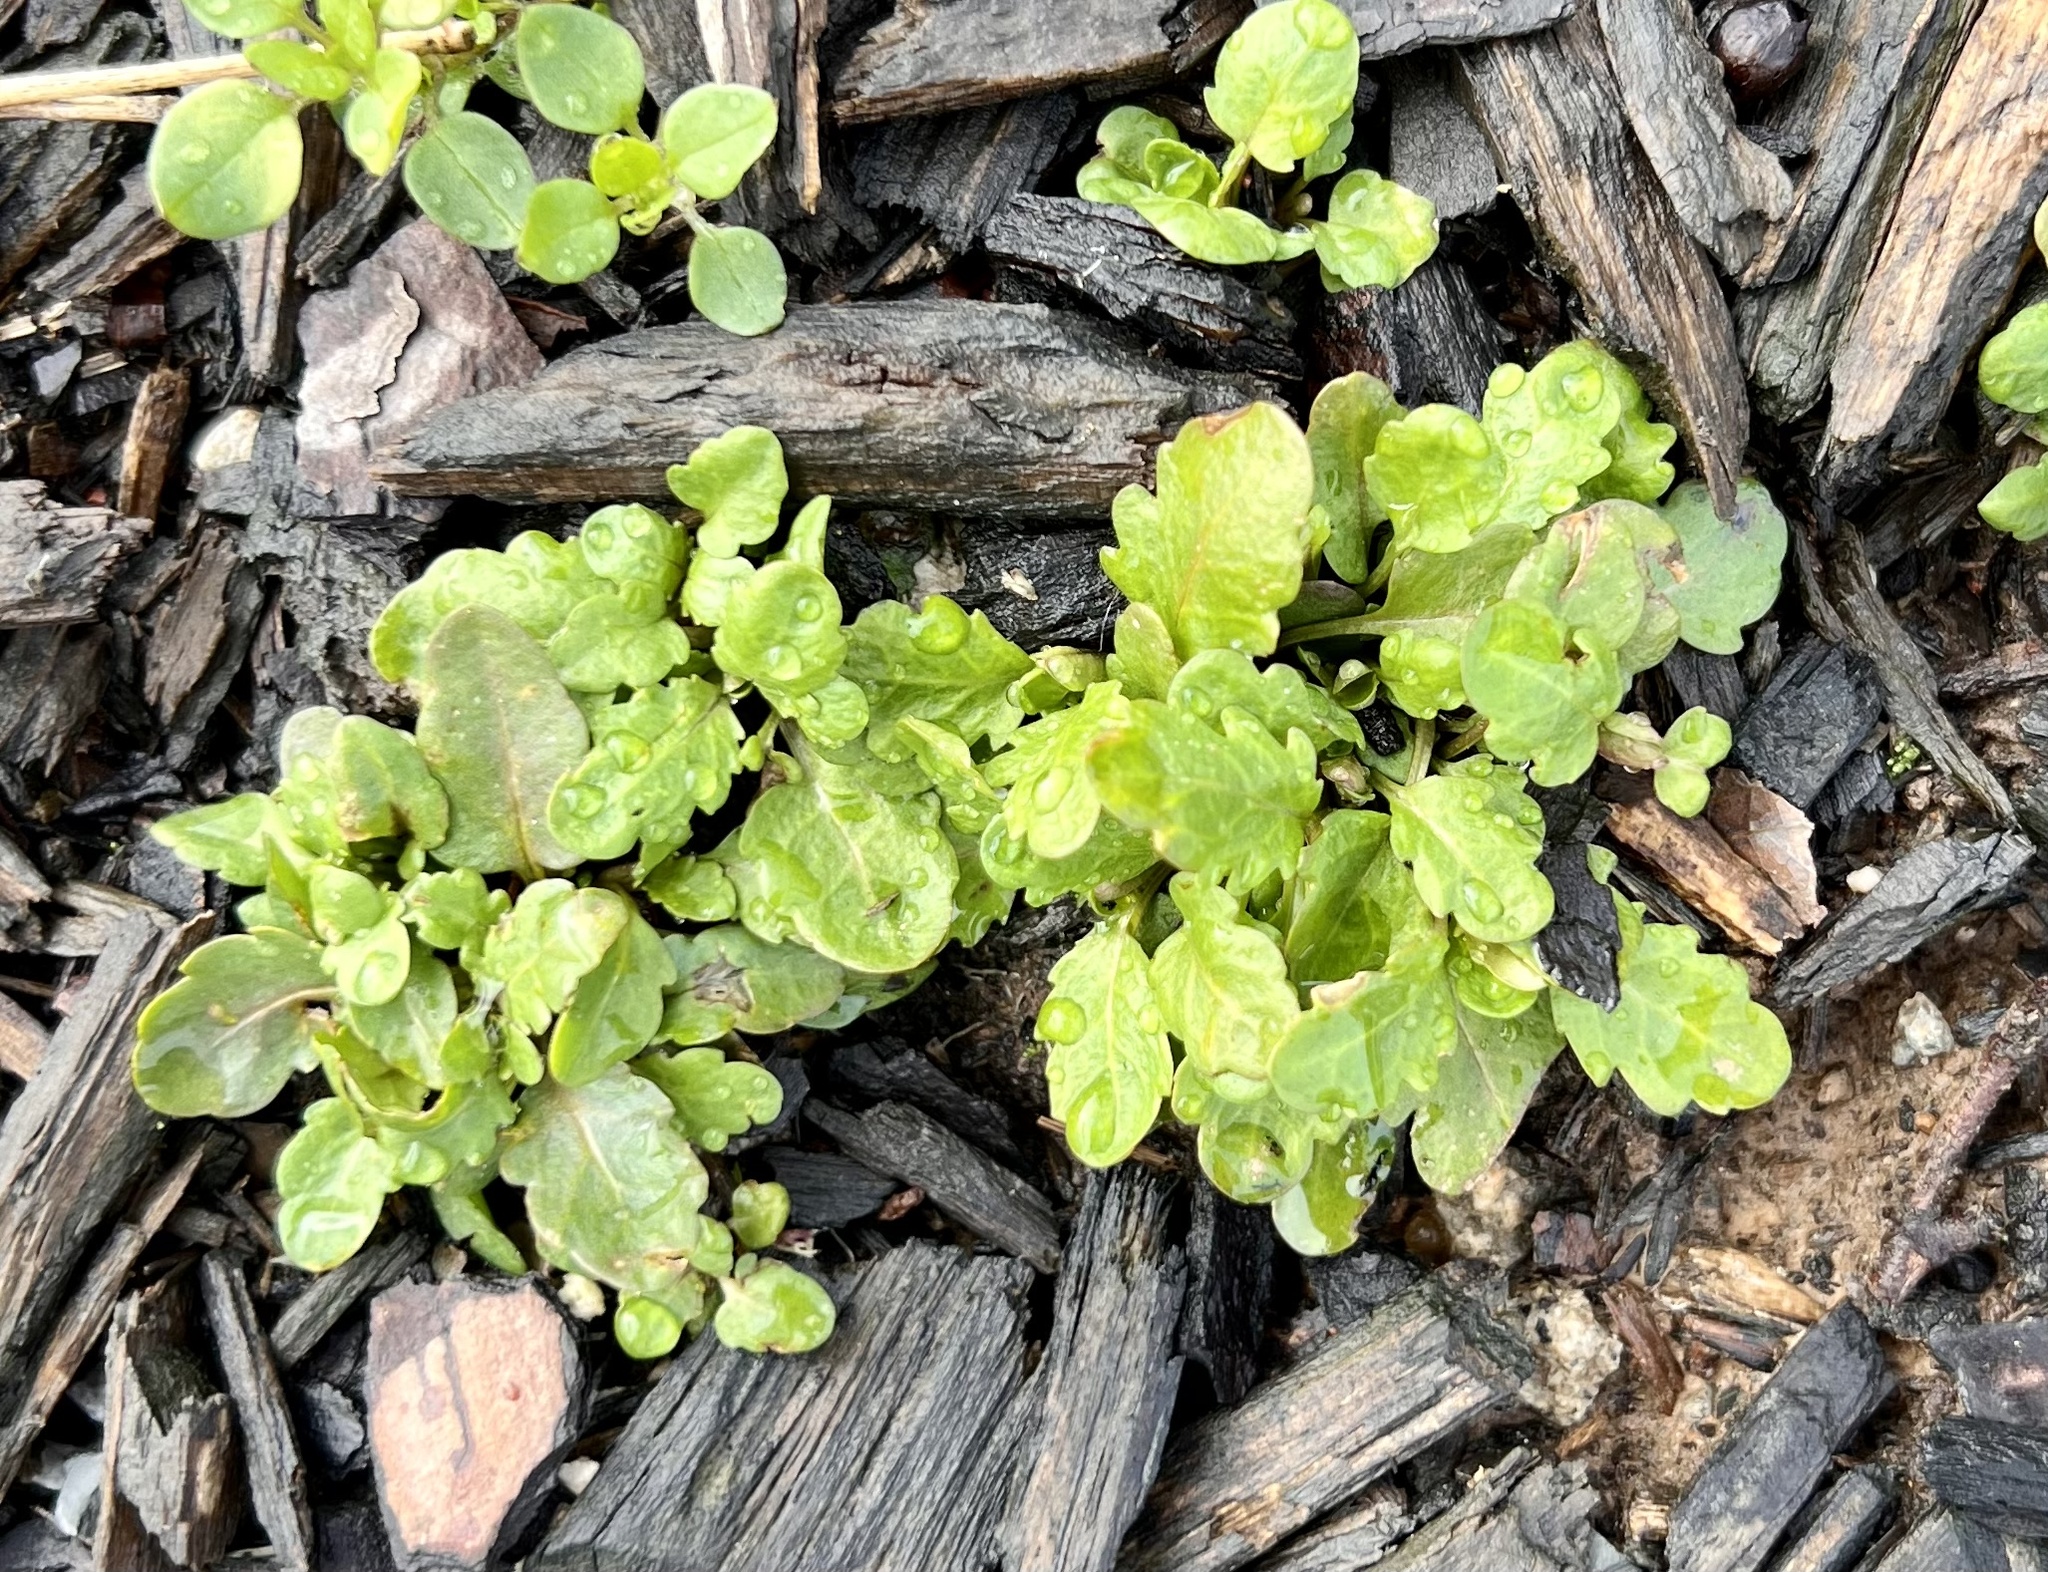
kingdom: Plantae
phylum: Tracheophyta
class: Magnoliopsida
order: Lamiales
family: Plantaginaceae
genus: Veronica
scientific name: Veronica peregrina
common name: Neckweed
